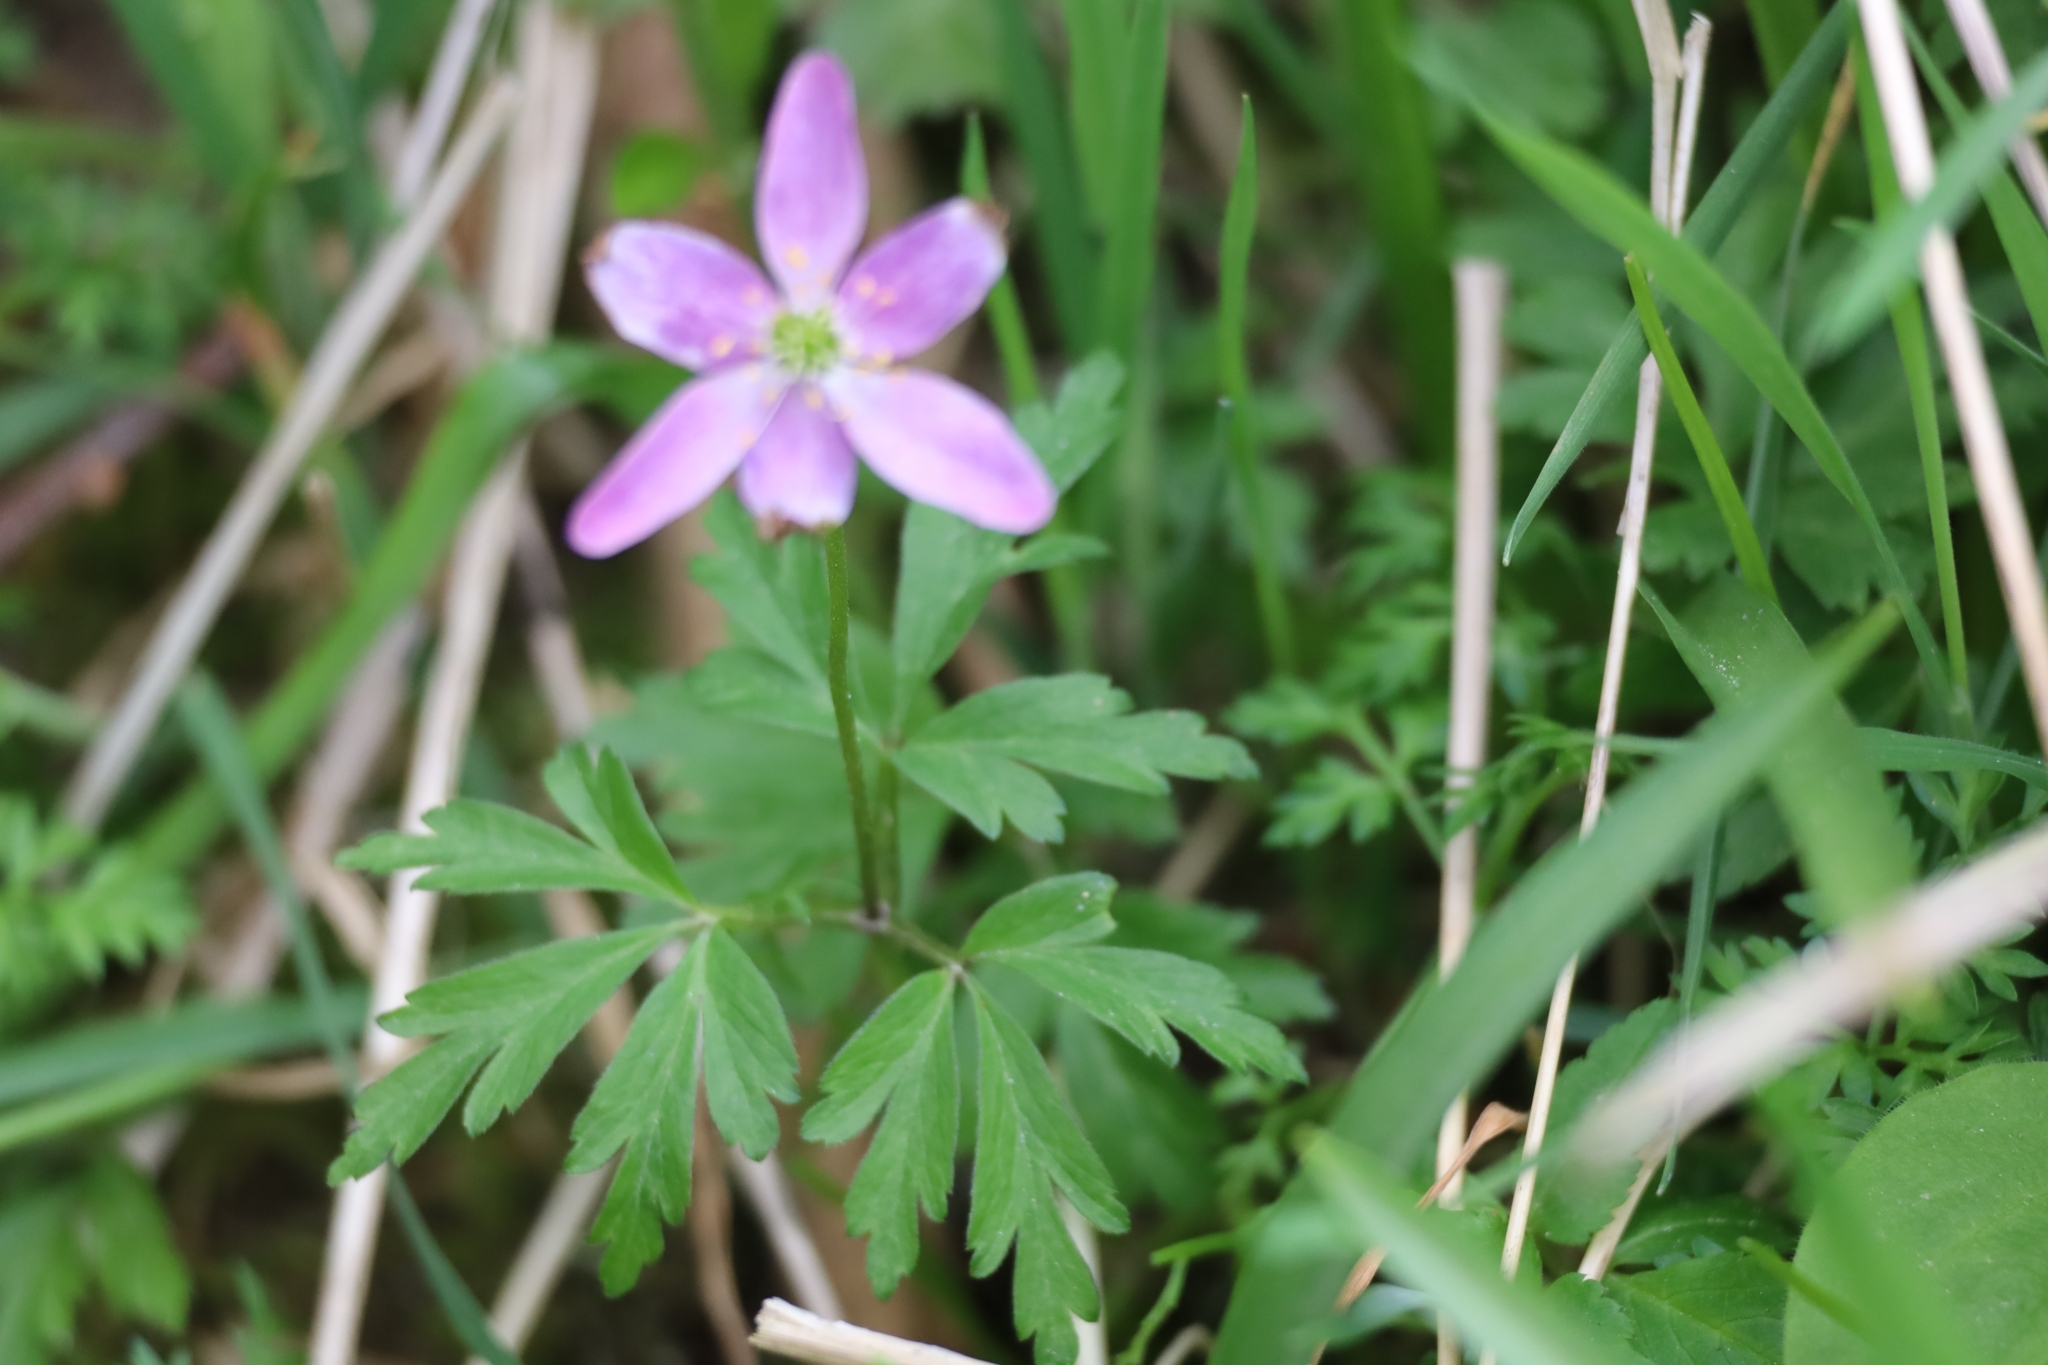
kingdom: Plantae
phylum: Tracheophyta
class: Magnoliopsida
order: Ranunculales
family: Ranunculaceae
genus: Anemone
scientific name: Anemone nemorosa
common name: Wood anemone
